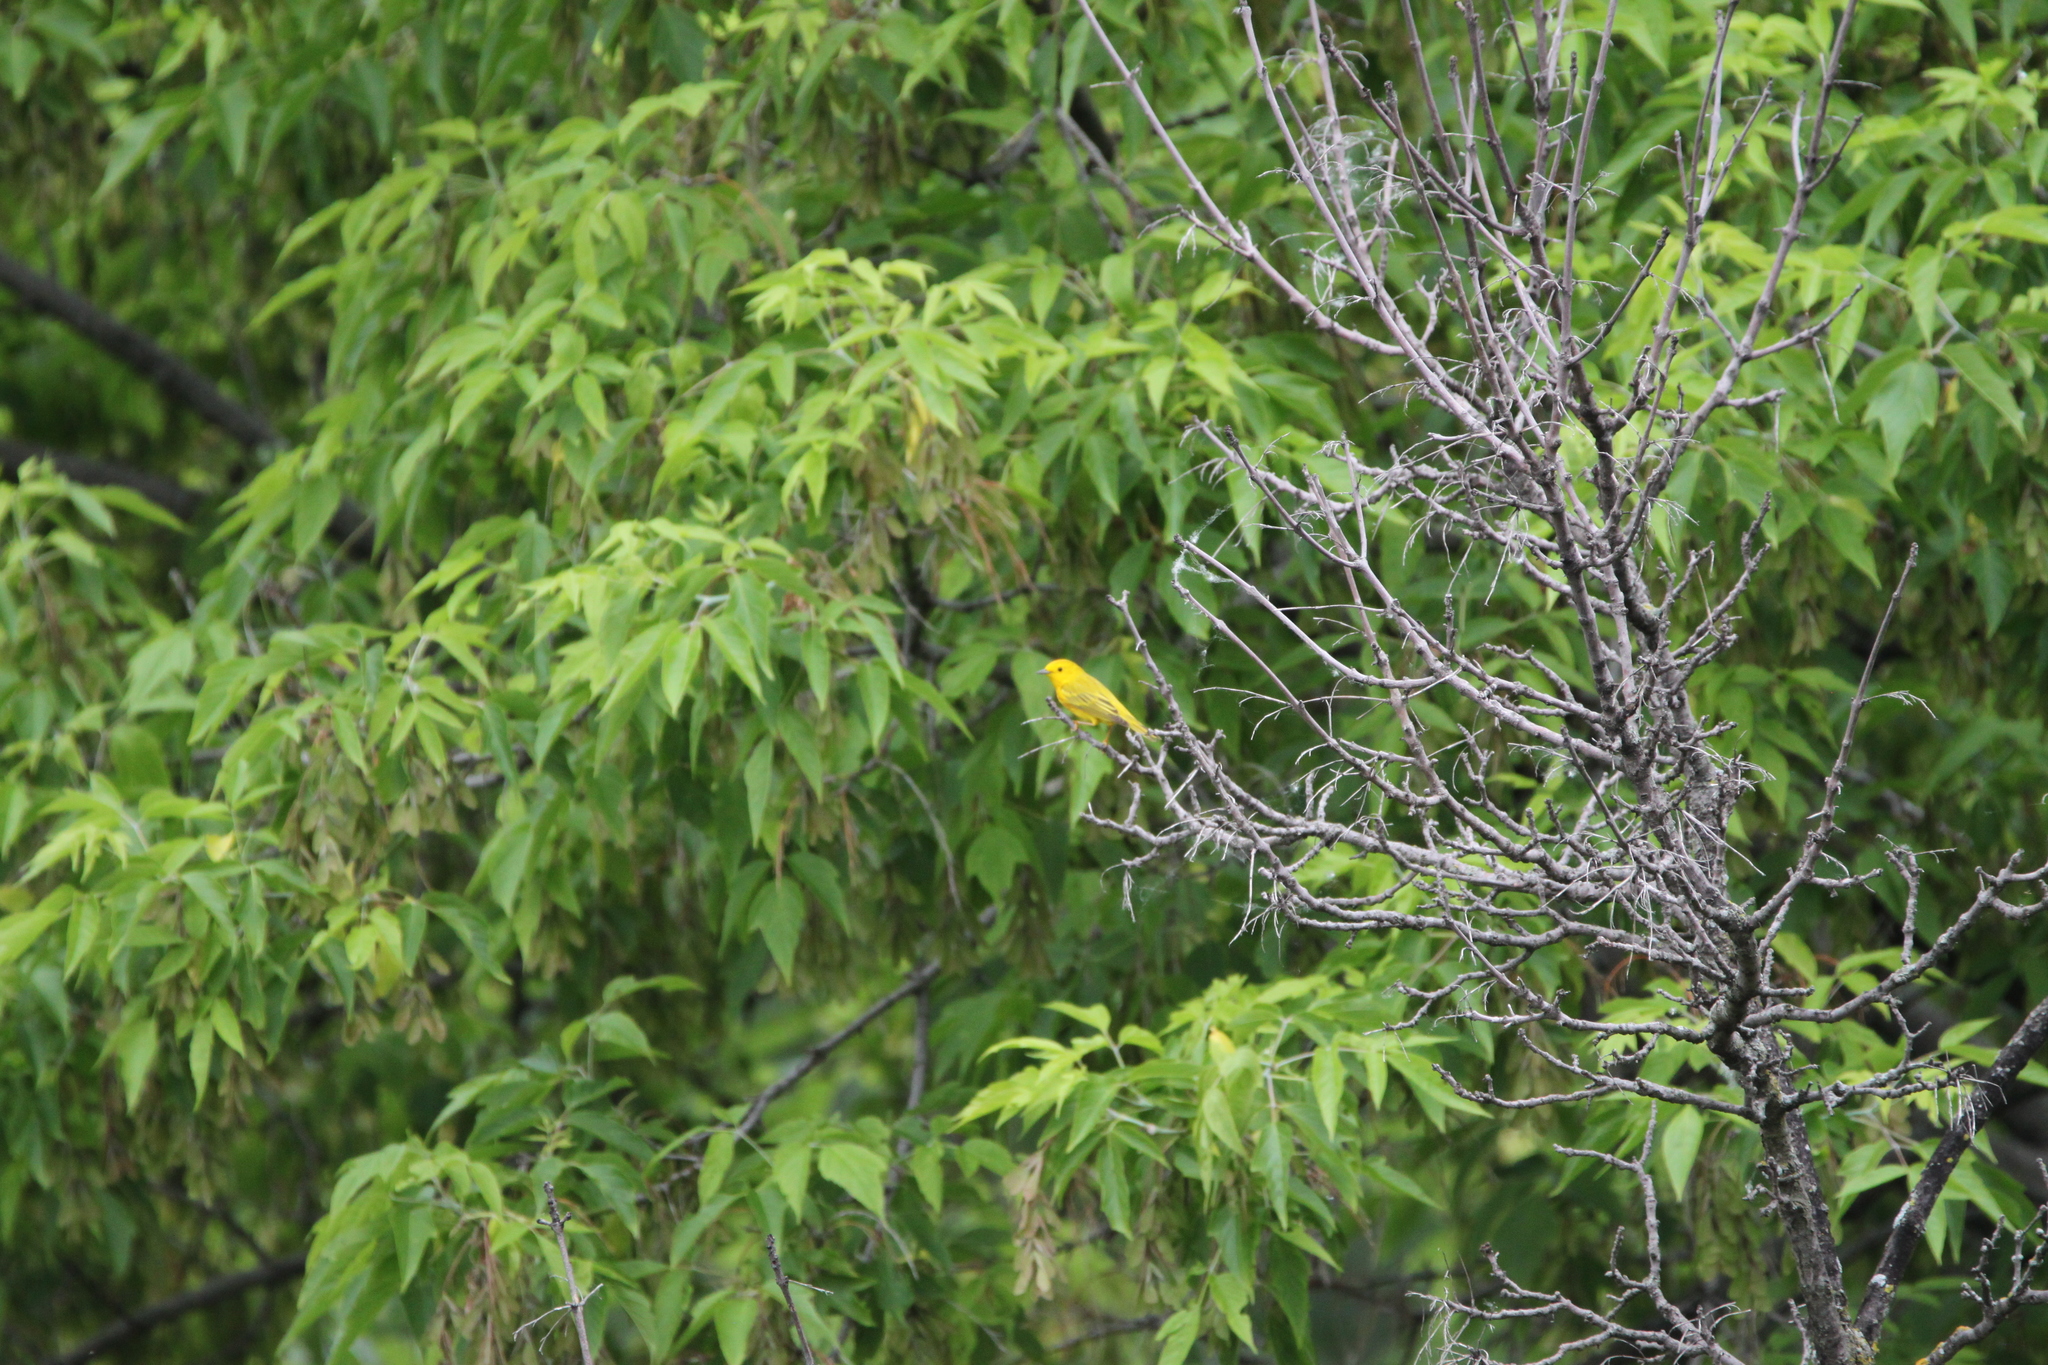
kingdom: Animalia
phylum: Chordata
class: Aves
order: Passeriformes
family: Parulidae
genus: Setophaga
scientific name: Setophaga petechia
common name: Yellow warbler
